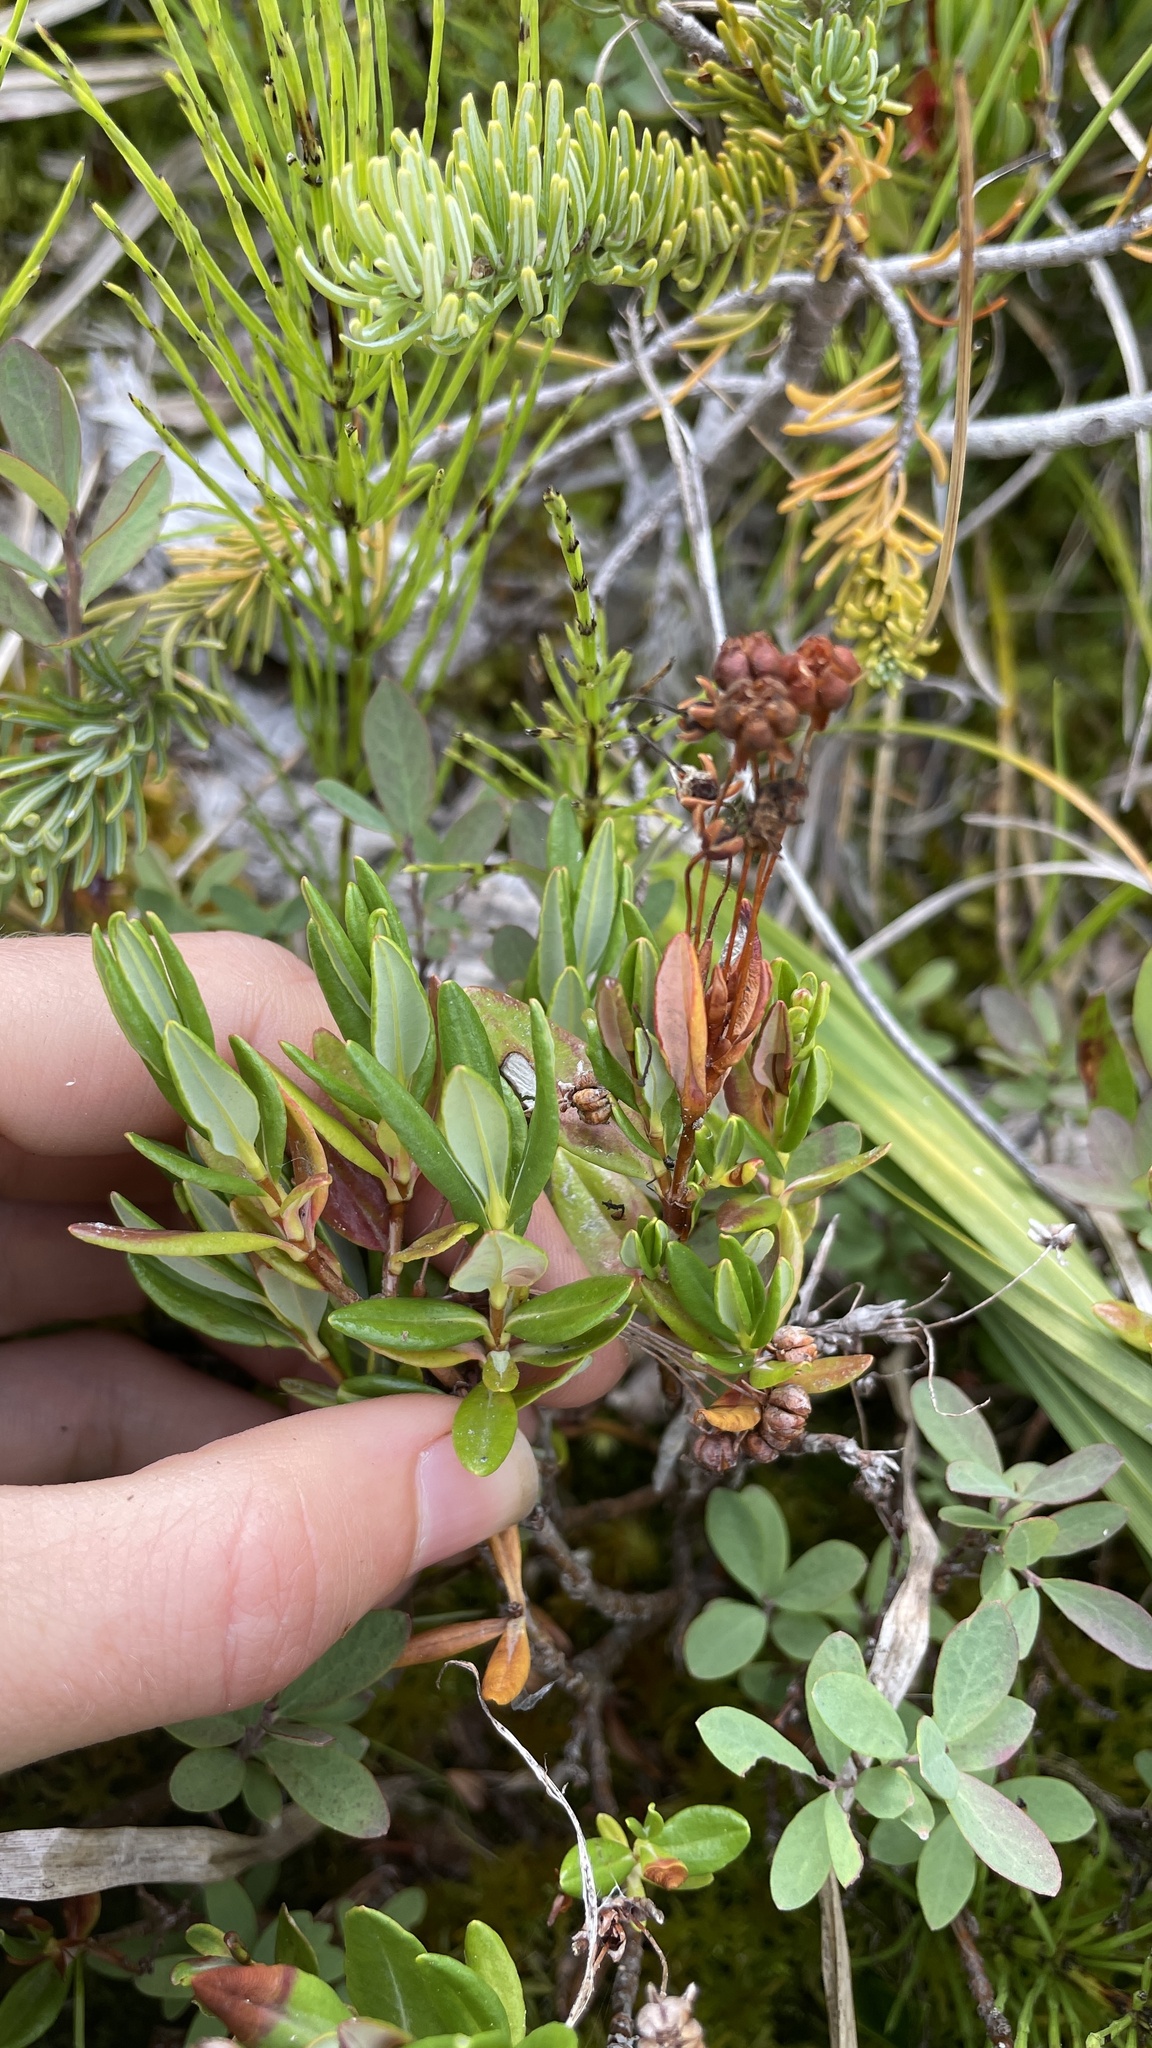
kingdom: Plantae
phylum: Tracheophyta
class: Magnoliopsida
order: Ericales
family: Ericaceae
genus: Kalmia
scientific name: Kalmia microphylla
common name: Alpine bog laurel
